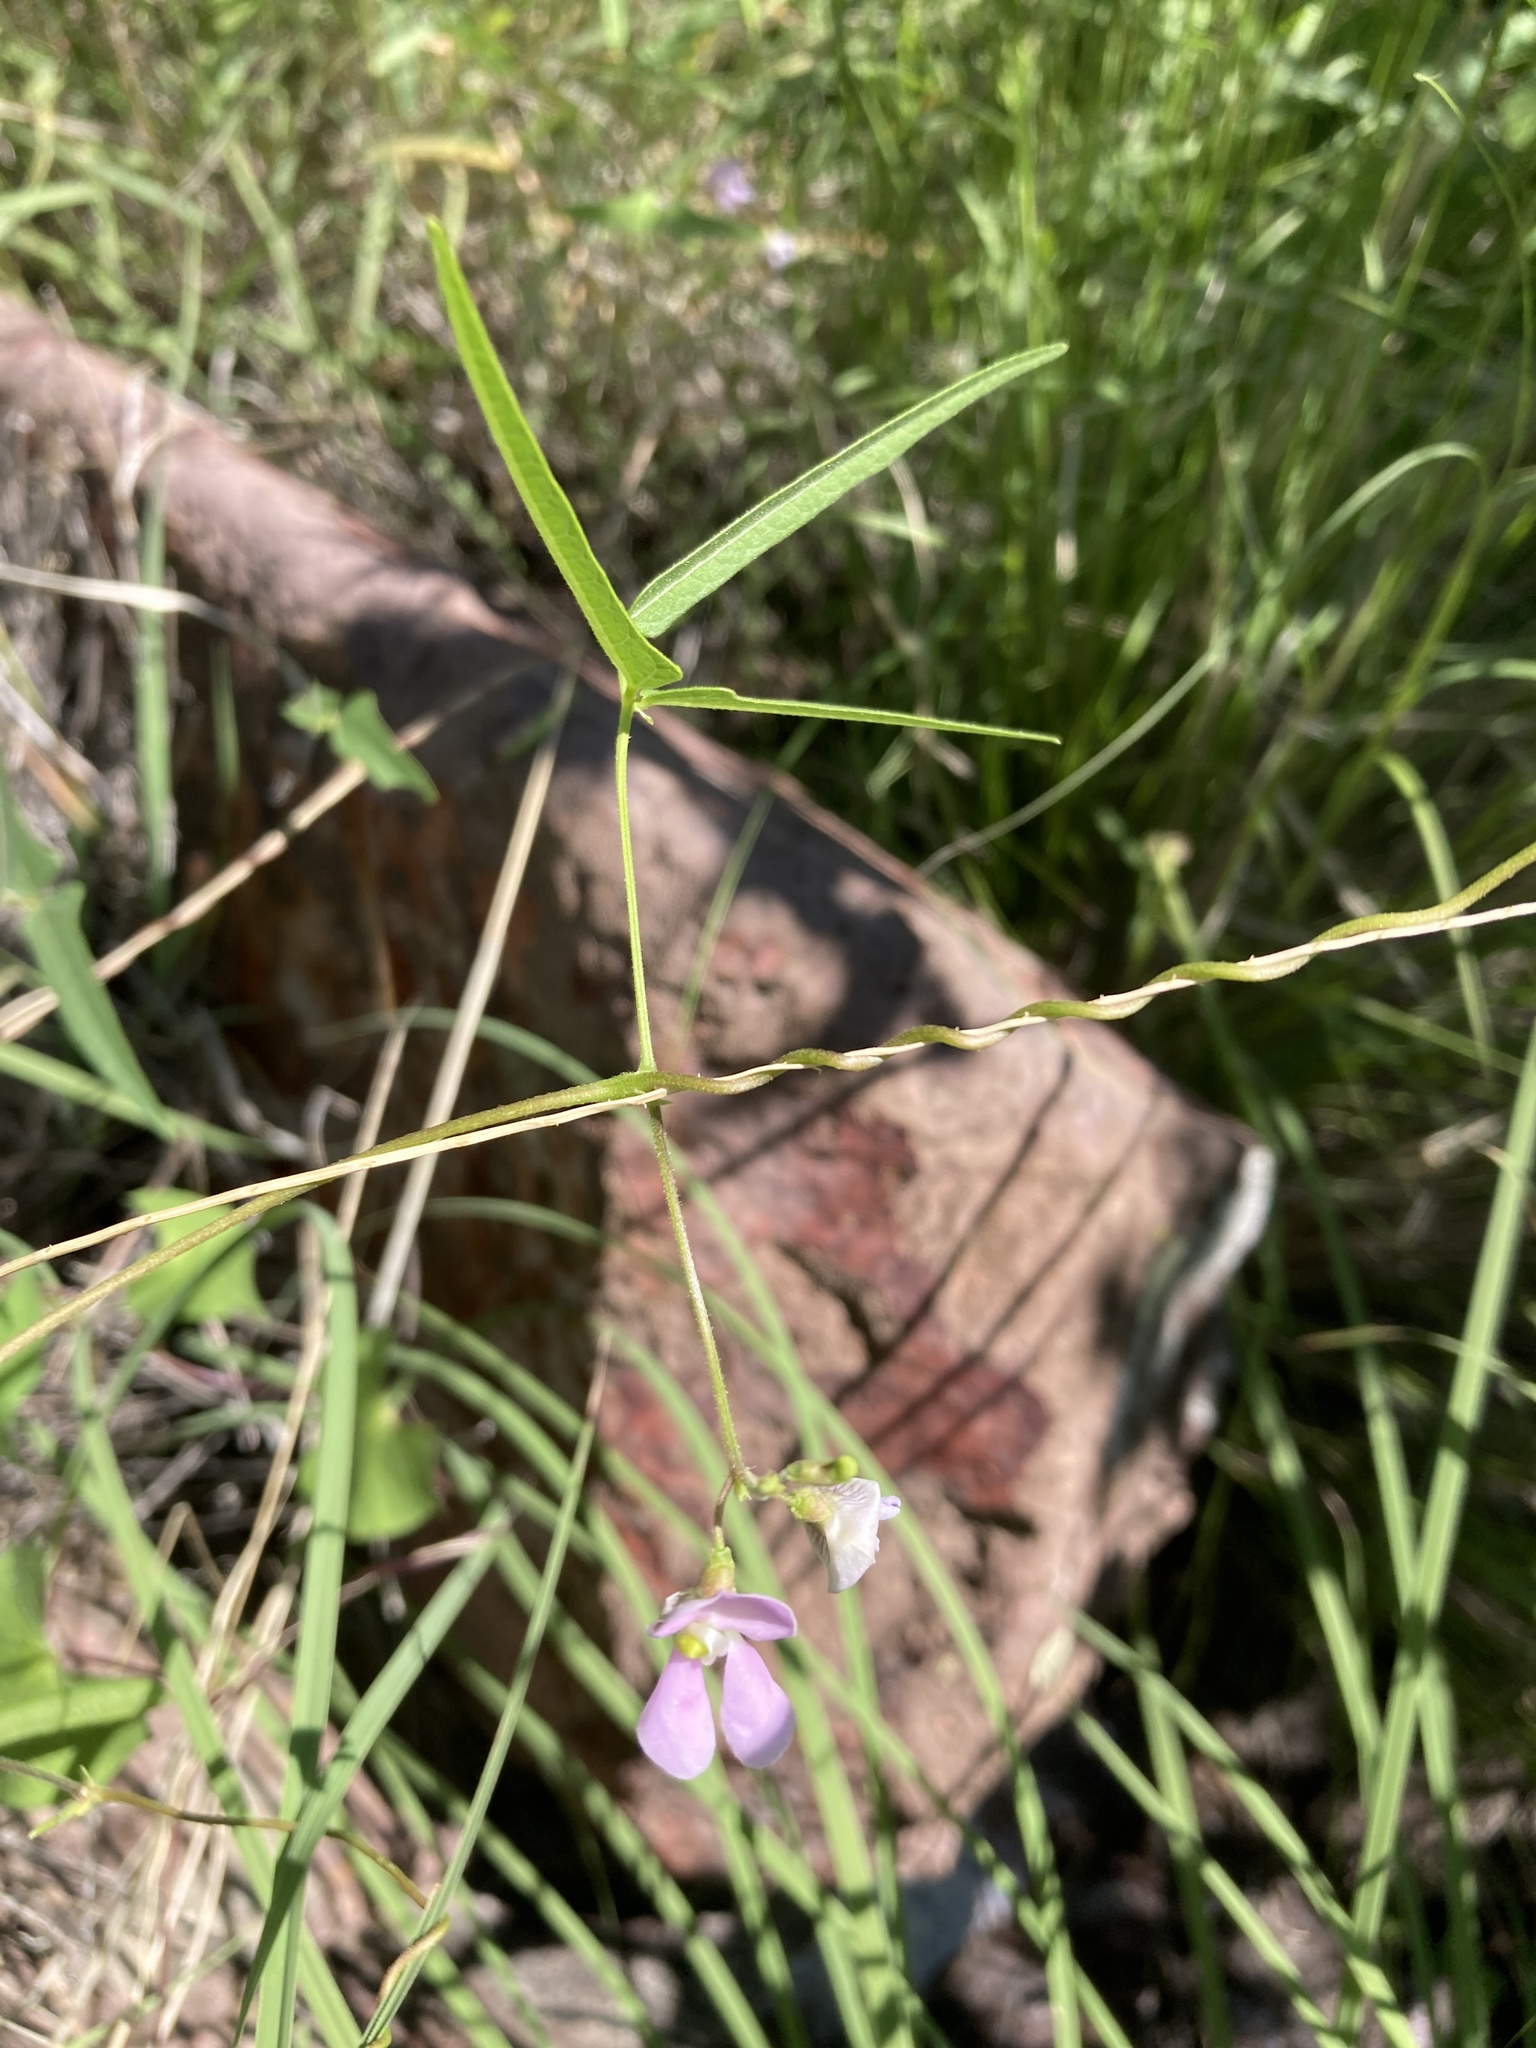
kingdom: Plantae
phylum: Tracheophyta
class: Magnoliopsida
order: Fabales
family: Fabaceae
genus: Phaseolus
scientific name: Phaseolus angustissimus
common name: Slimleaf bean
